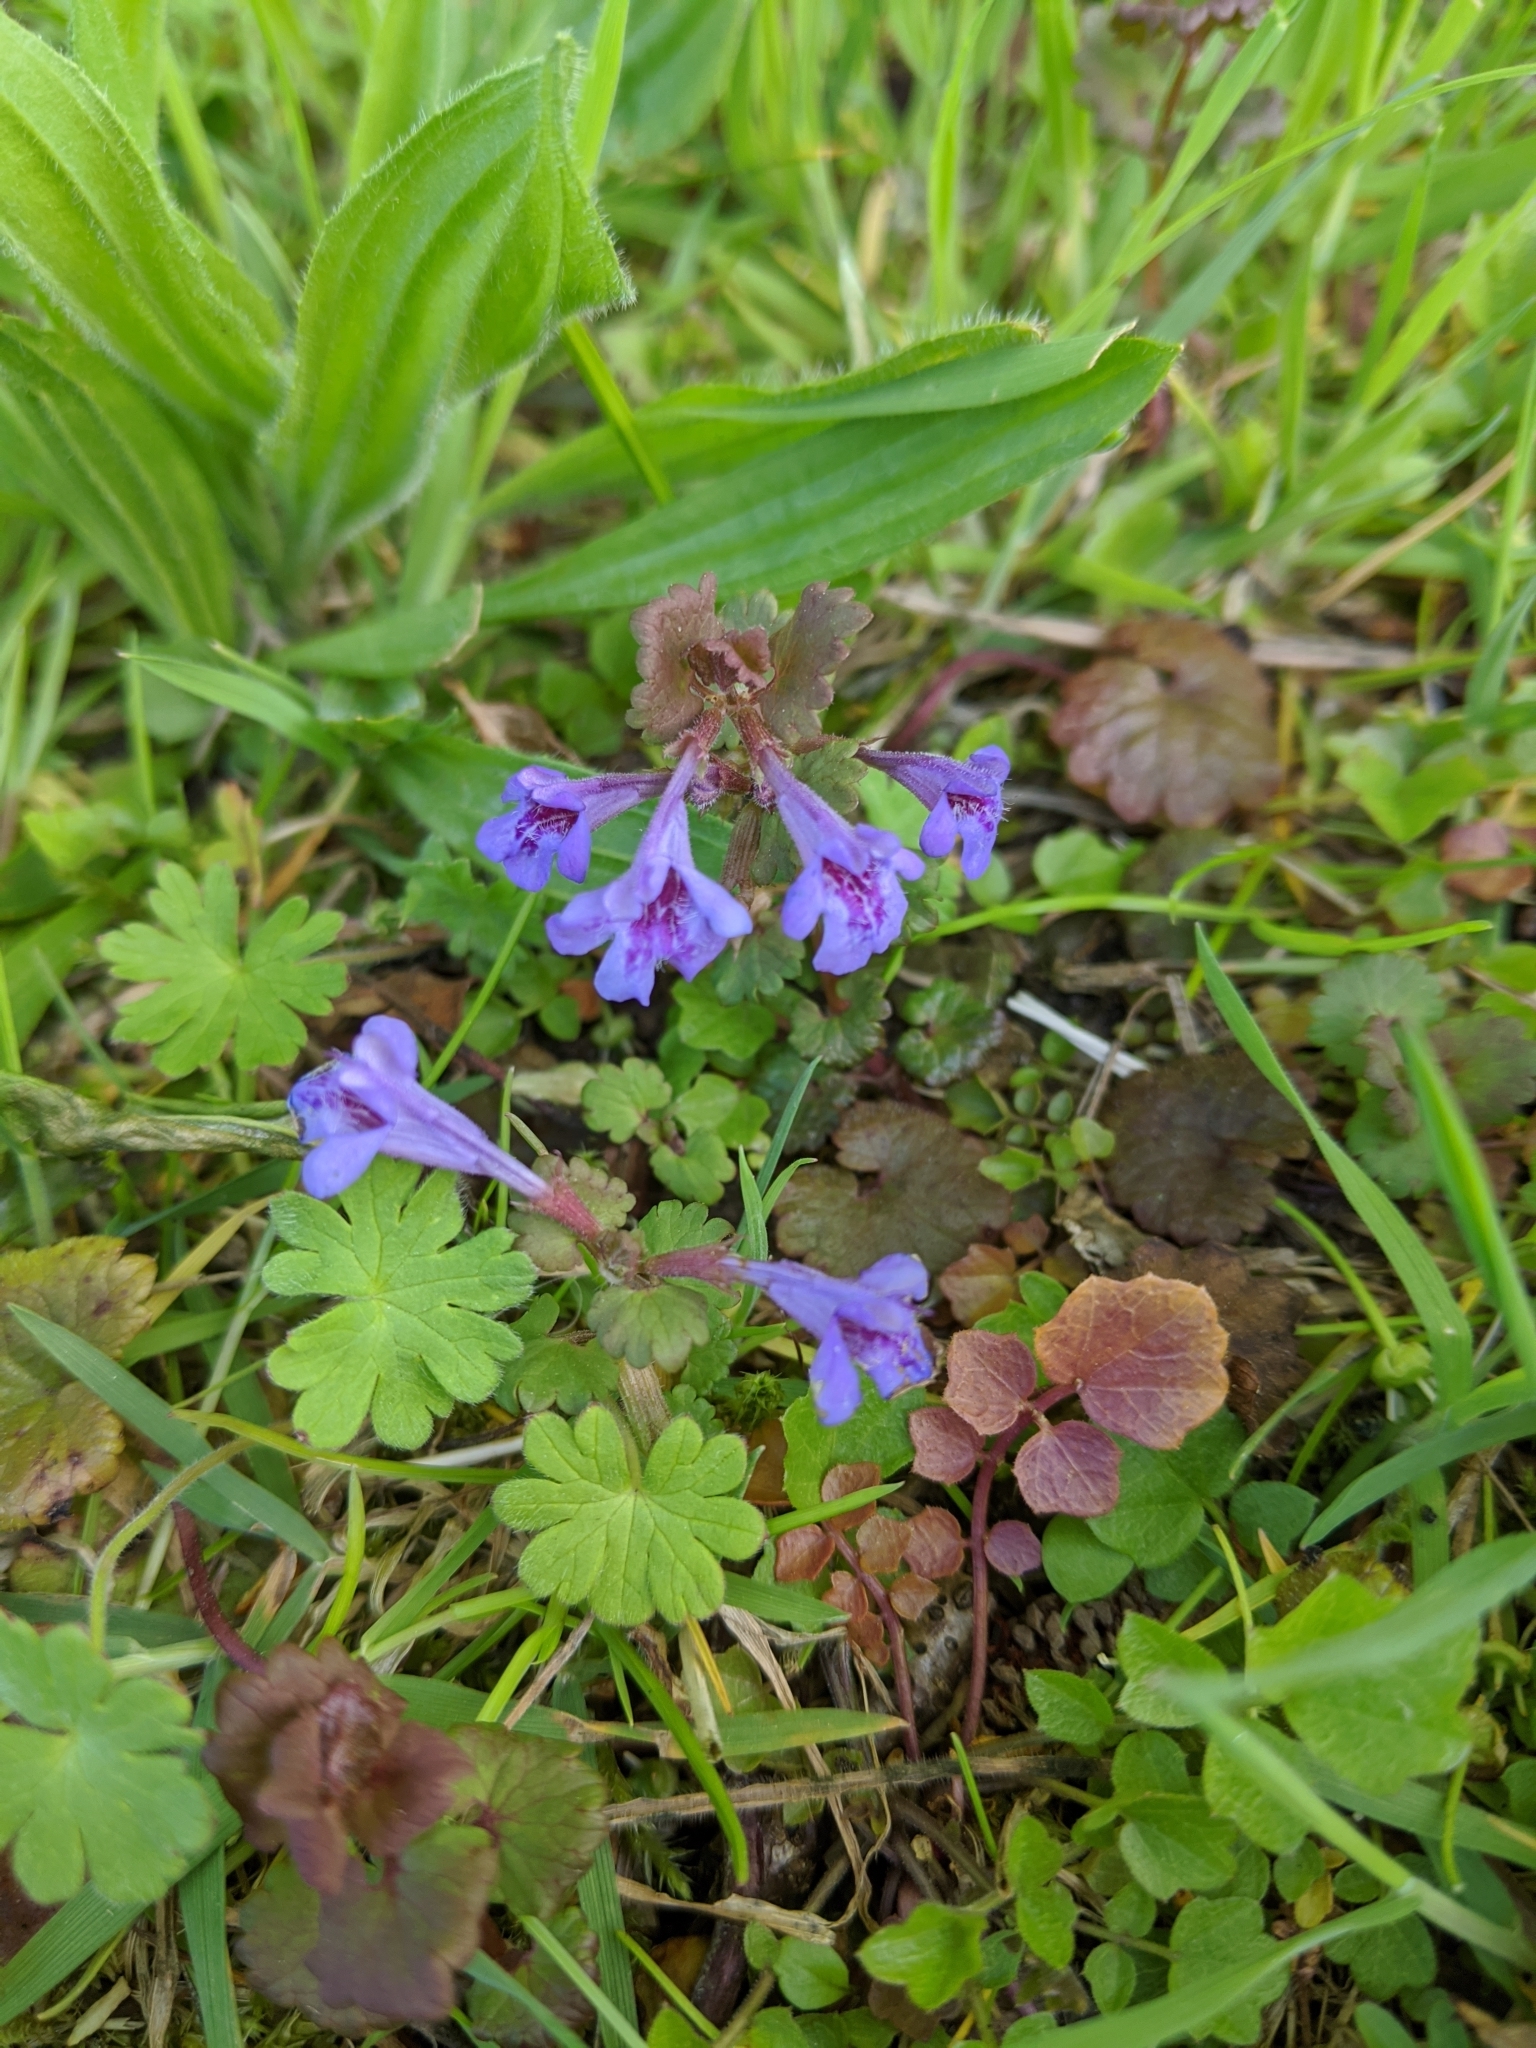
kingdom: Plantae
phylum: Tracheophyta
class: Magnoliopsida
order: Lamiales
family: Lamiaceae
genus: Glechoma
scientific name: Glechoma hederacea
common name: Ground ivy
